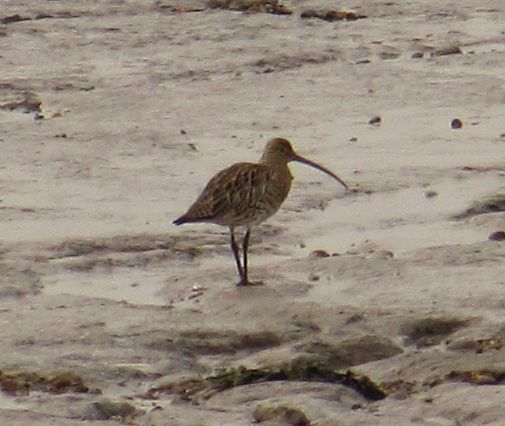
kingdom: Animalia
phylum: Chordata
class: Aves
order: Charadriiformes
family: Scolopacidae
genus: Numenius
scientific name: Numenius arquata
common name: Eurasian curlew
